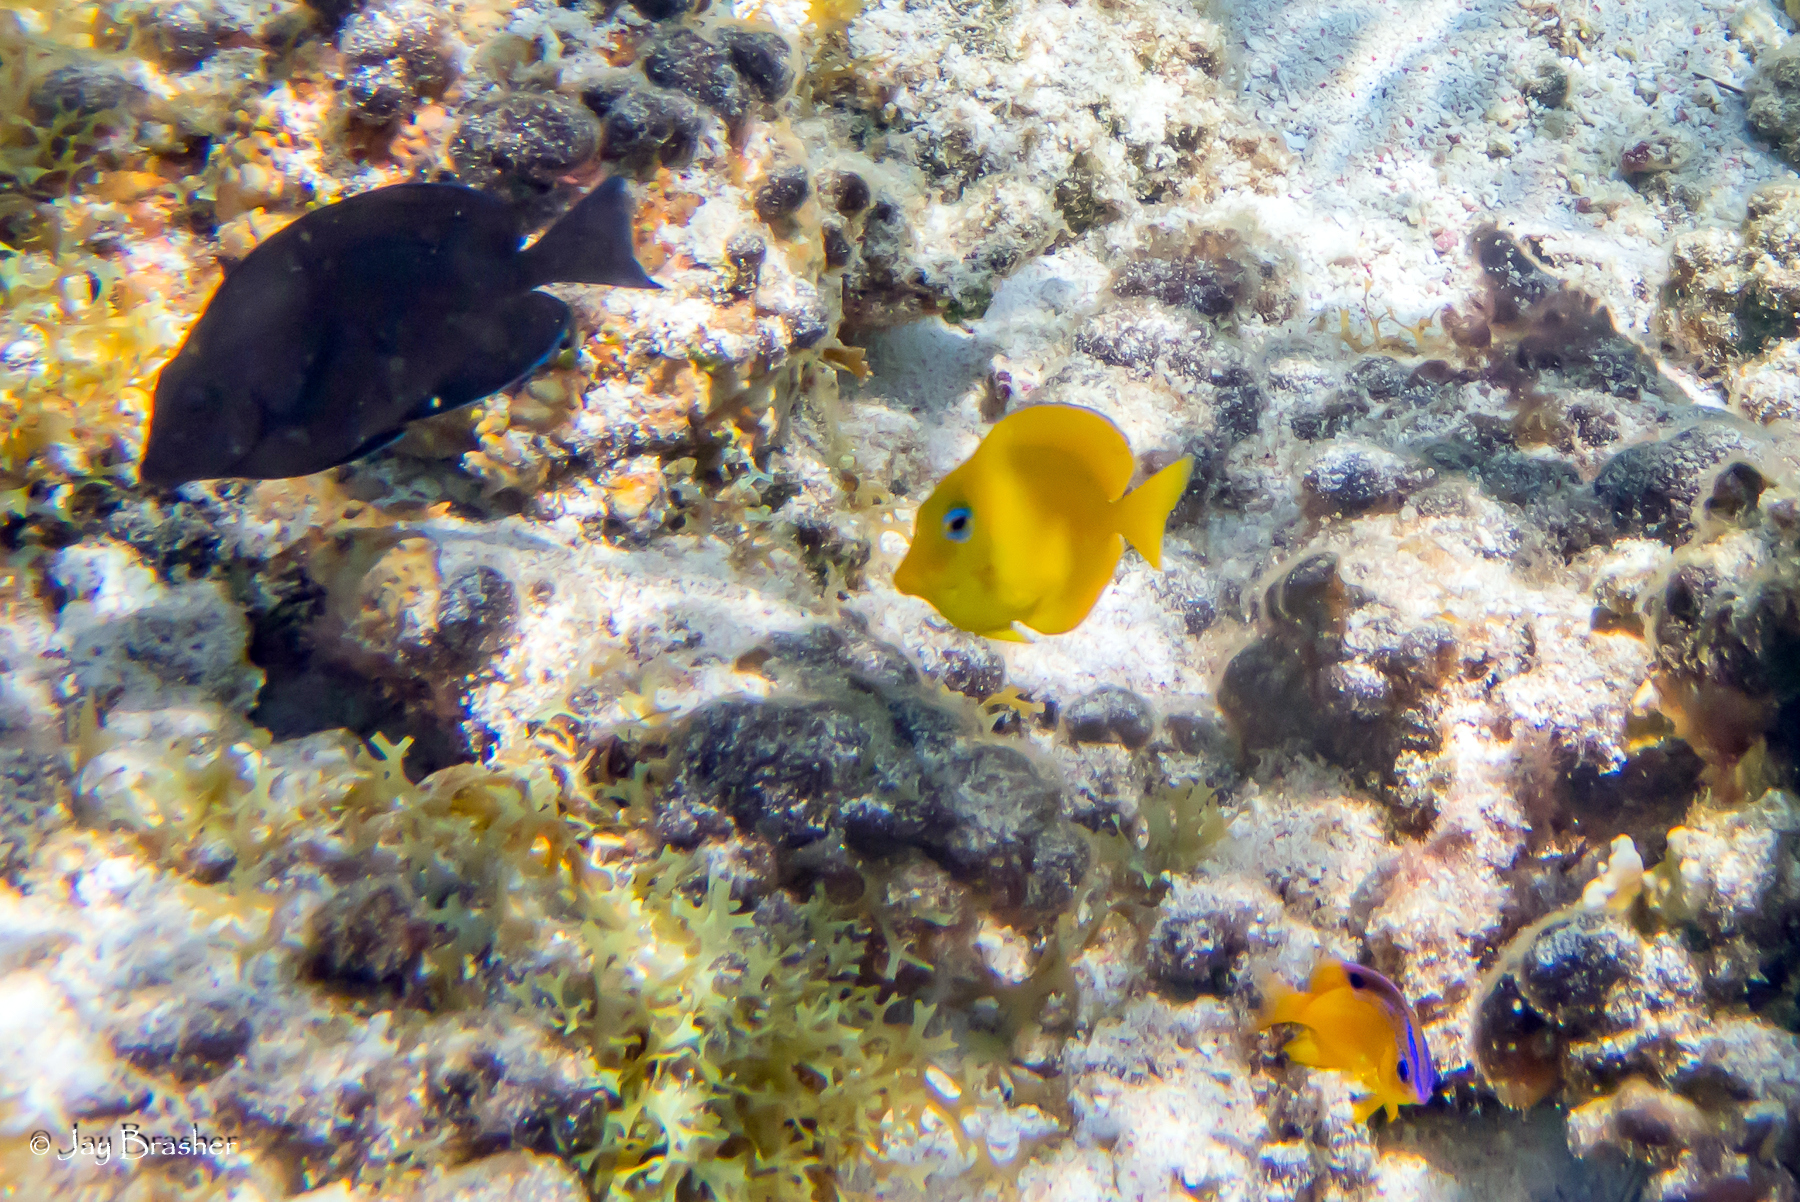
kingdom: Animalia
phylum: Chordata
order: Perciformes
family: Acanthuridae
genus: Acanthurus
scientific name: Acanthurus coeruleus
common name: Blue tang
